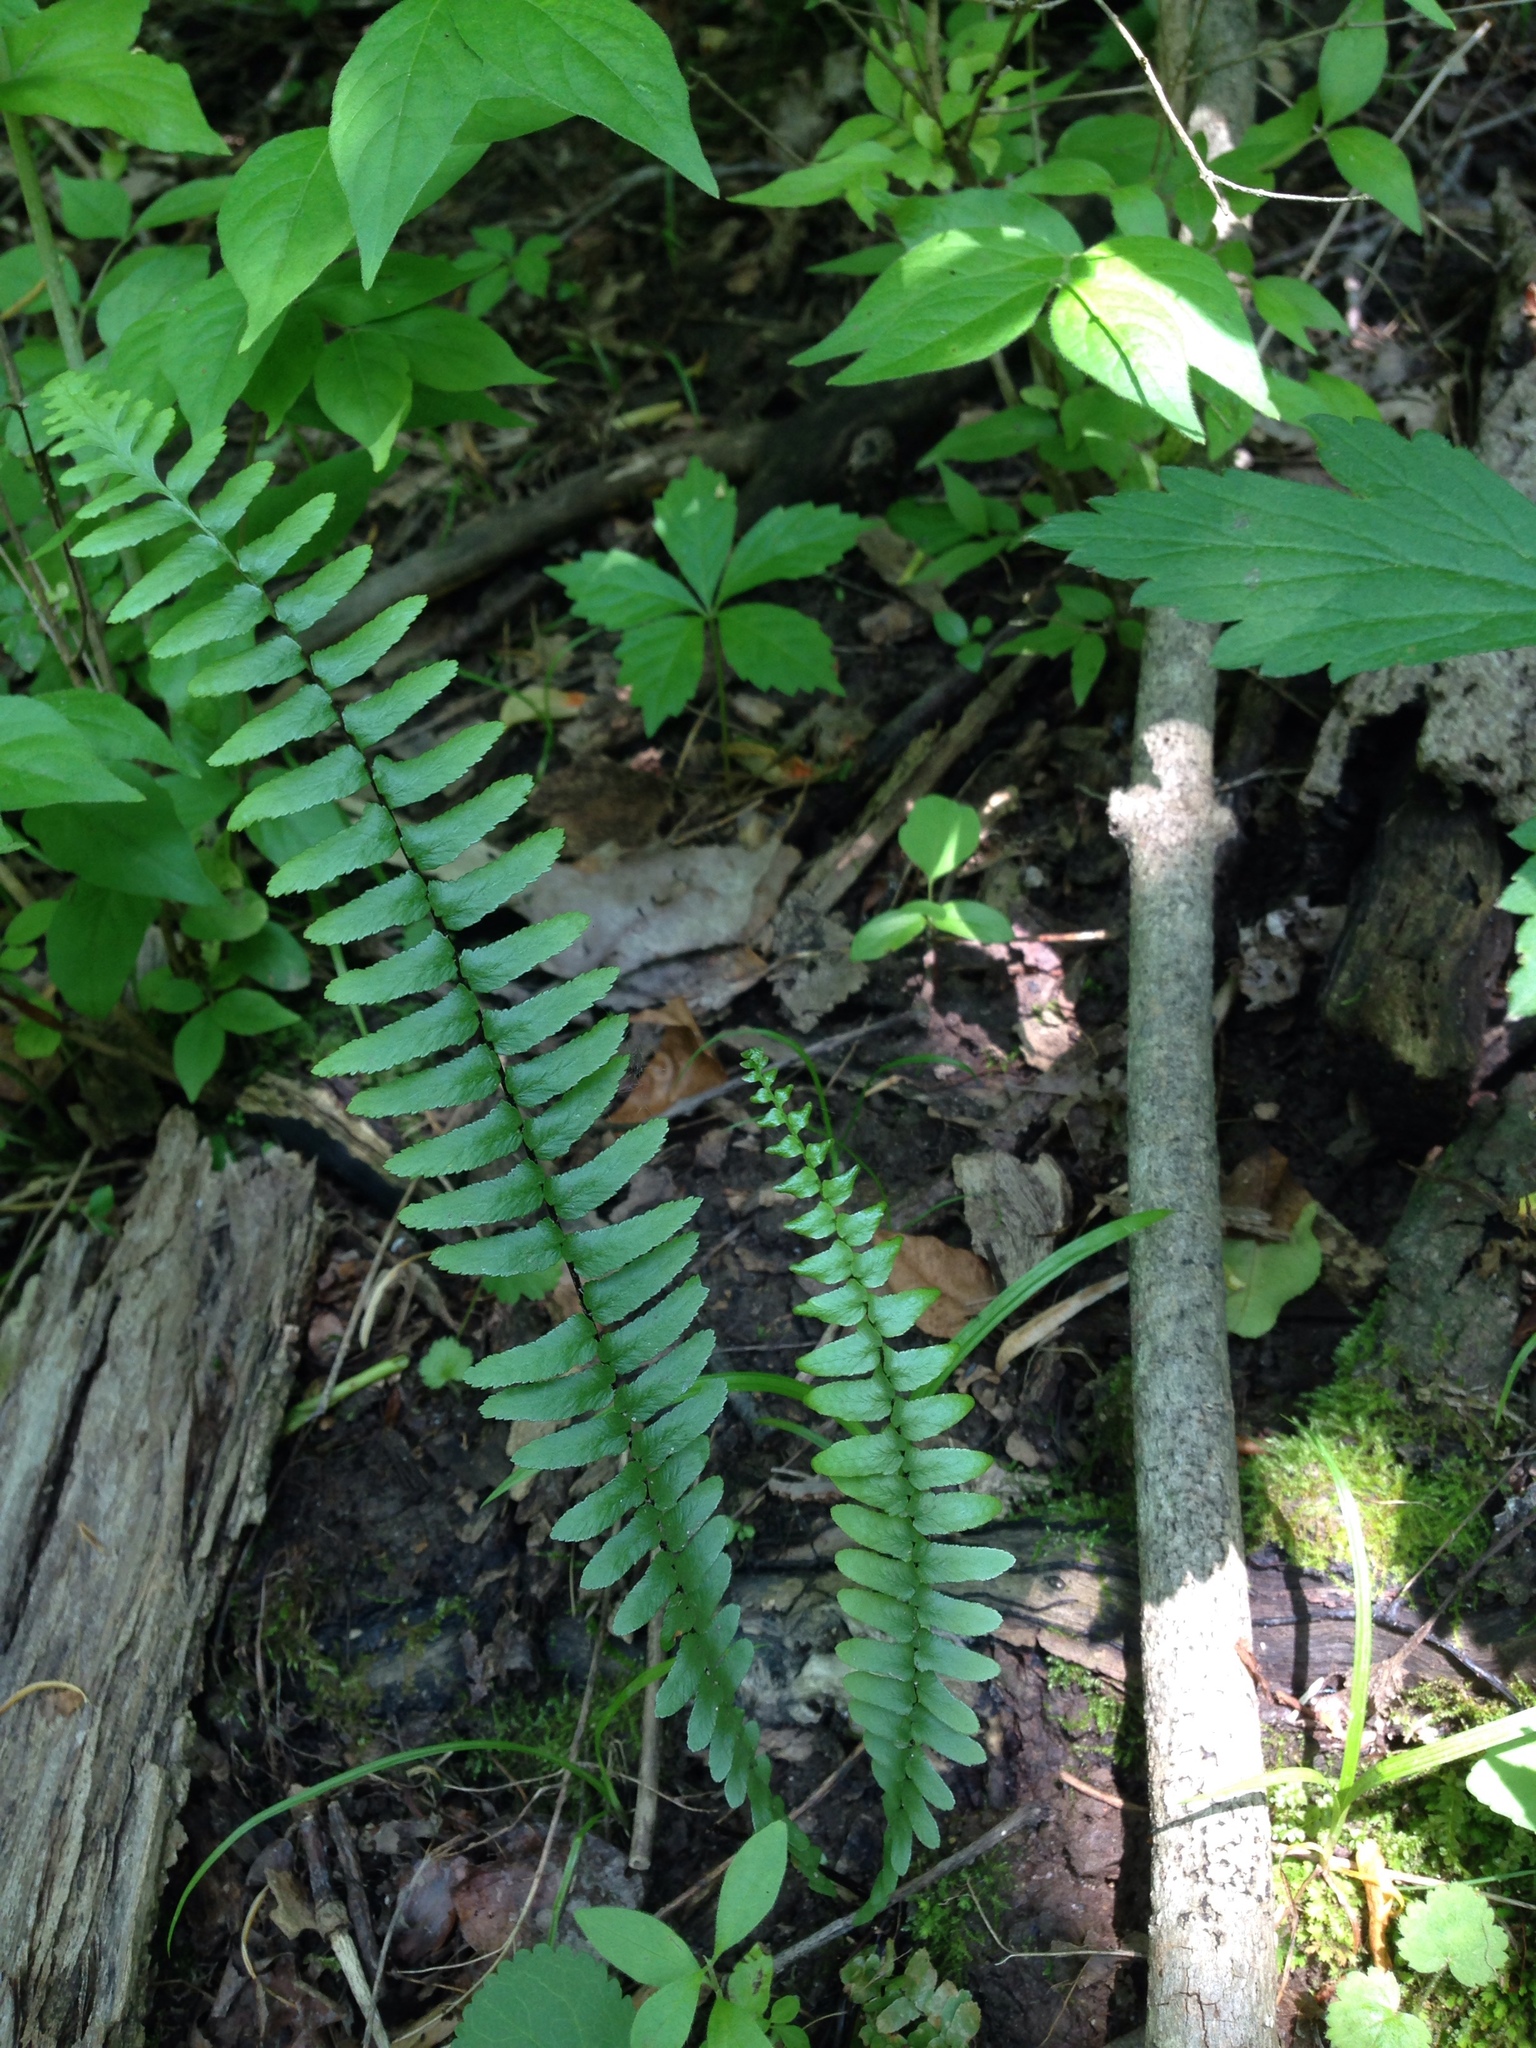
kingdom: Plantae
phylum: Tracheophyta
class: Polypodiopsida
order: Polypodiales
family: Aspleniaceae
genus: Asplenium
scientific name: Asplenium platyneuron
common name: Ebony spleenwort
